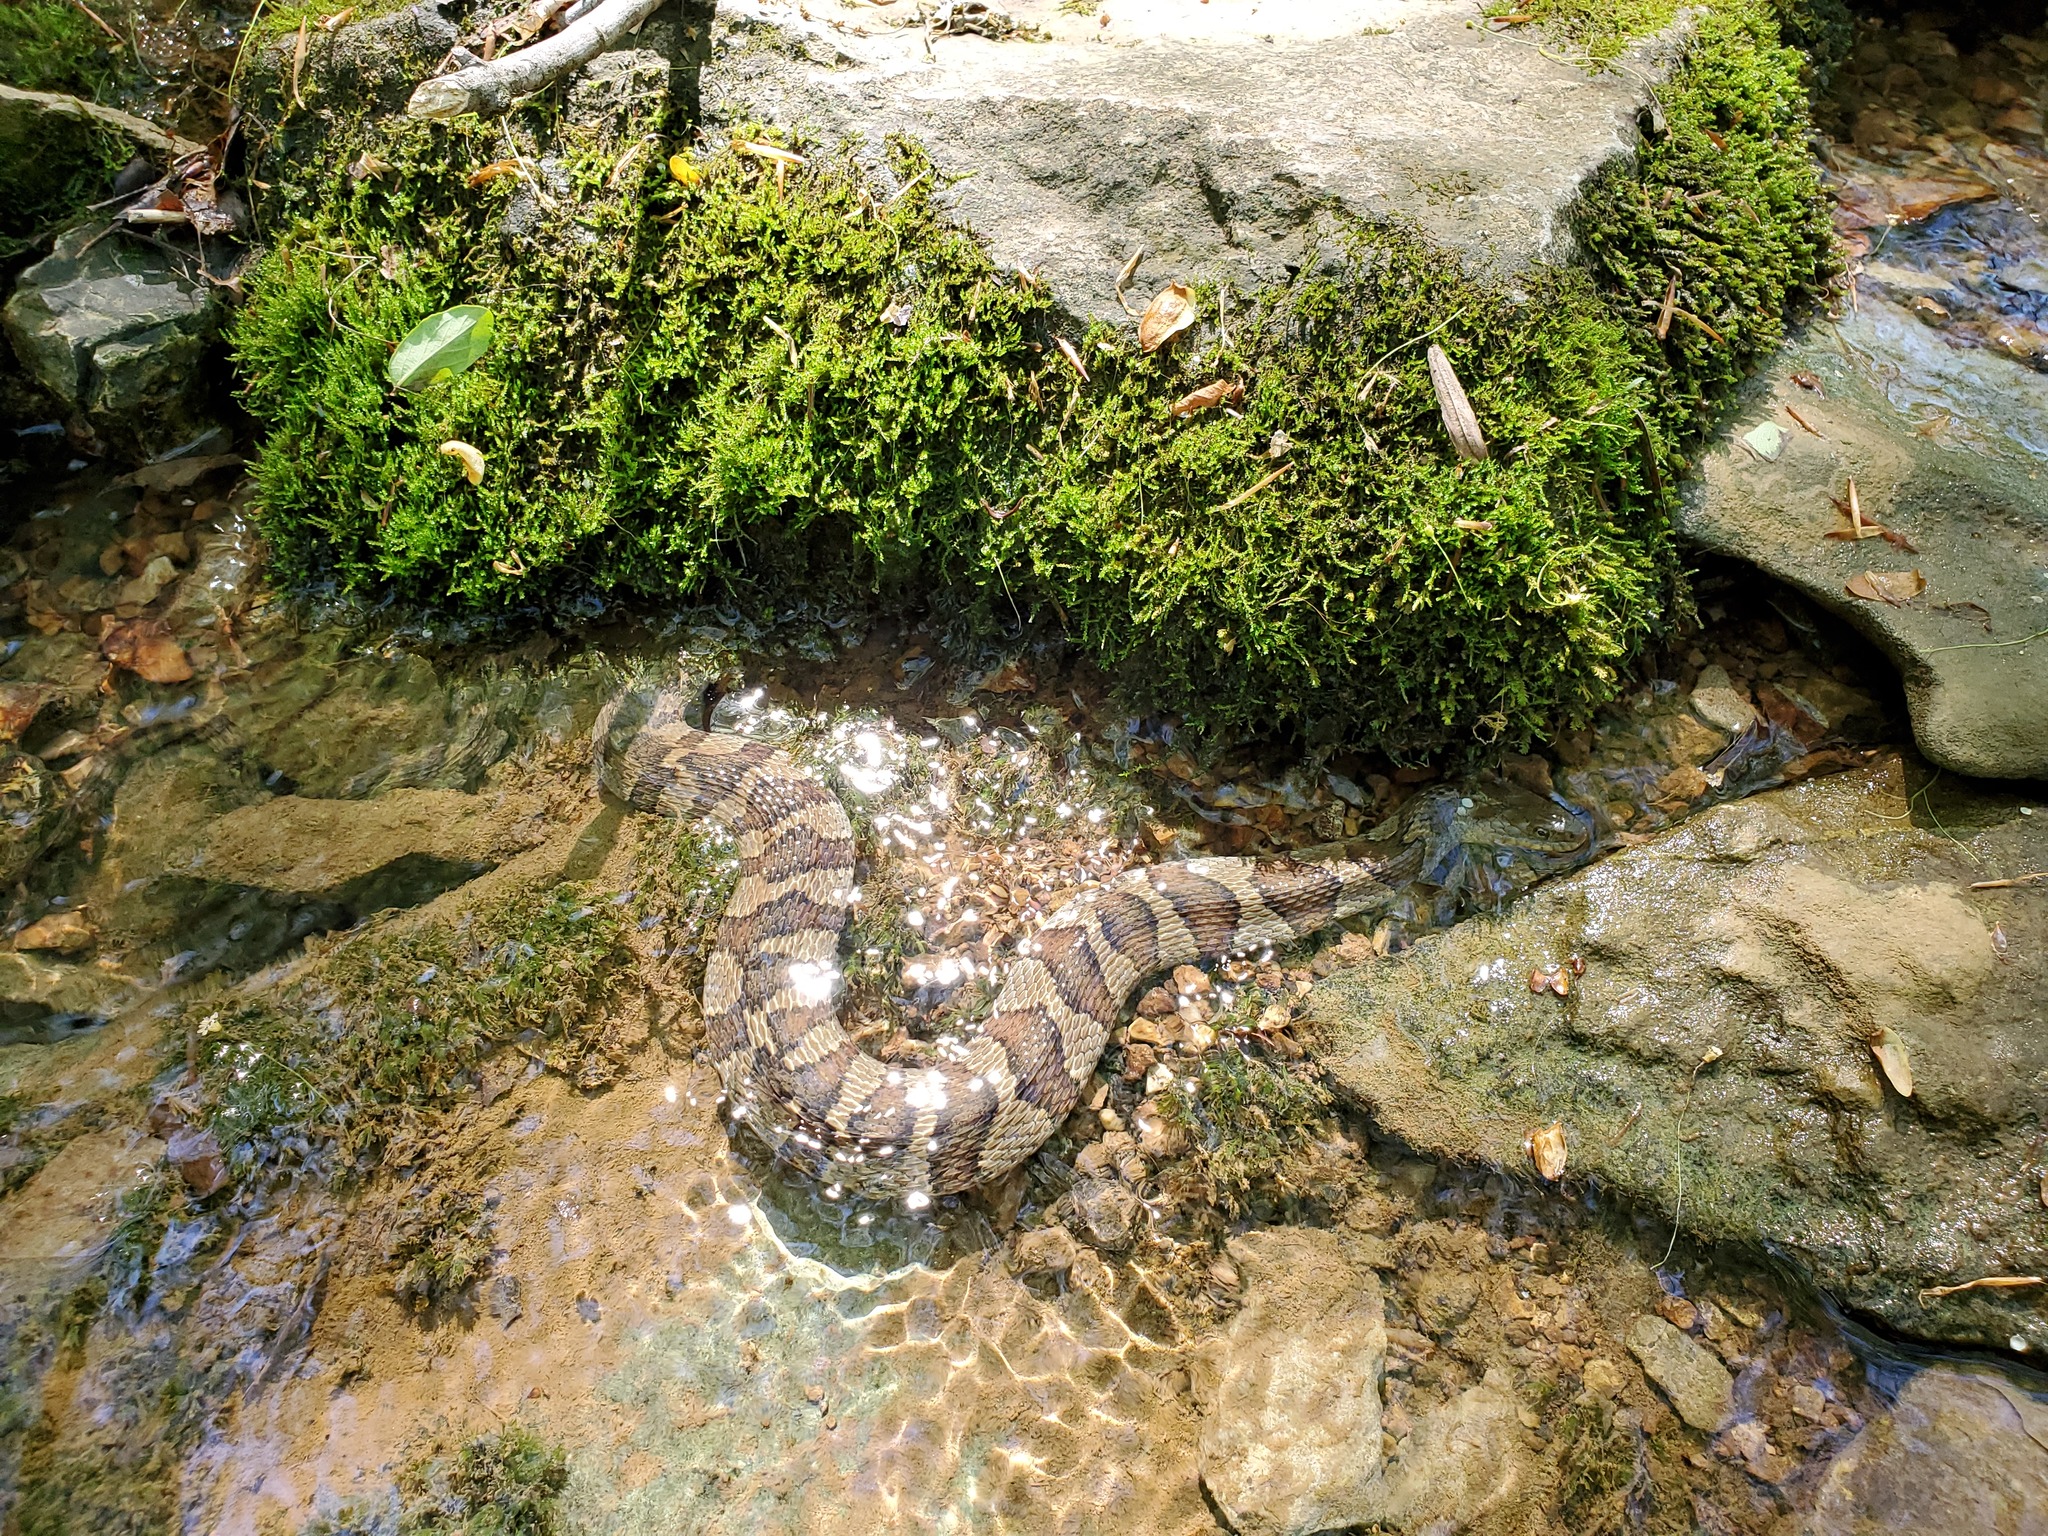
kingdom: Animalia
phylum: Chordata
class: Squamata
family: Colubridae
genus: Nerodia
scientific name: Nerodia sipedon
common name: Northern water snake
